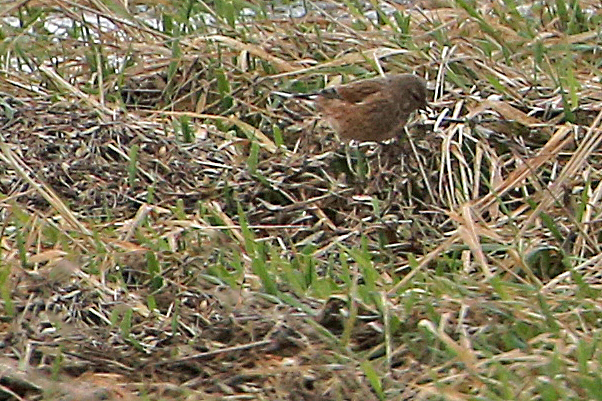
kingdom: Animalia
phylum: Chordata
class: Aves
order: Passeriformes
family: Fringillidae
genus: Linaria
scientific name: Linaria cannabina
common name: Common linnet
